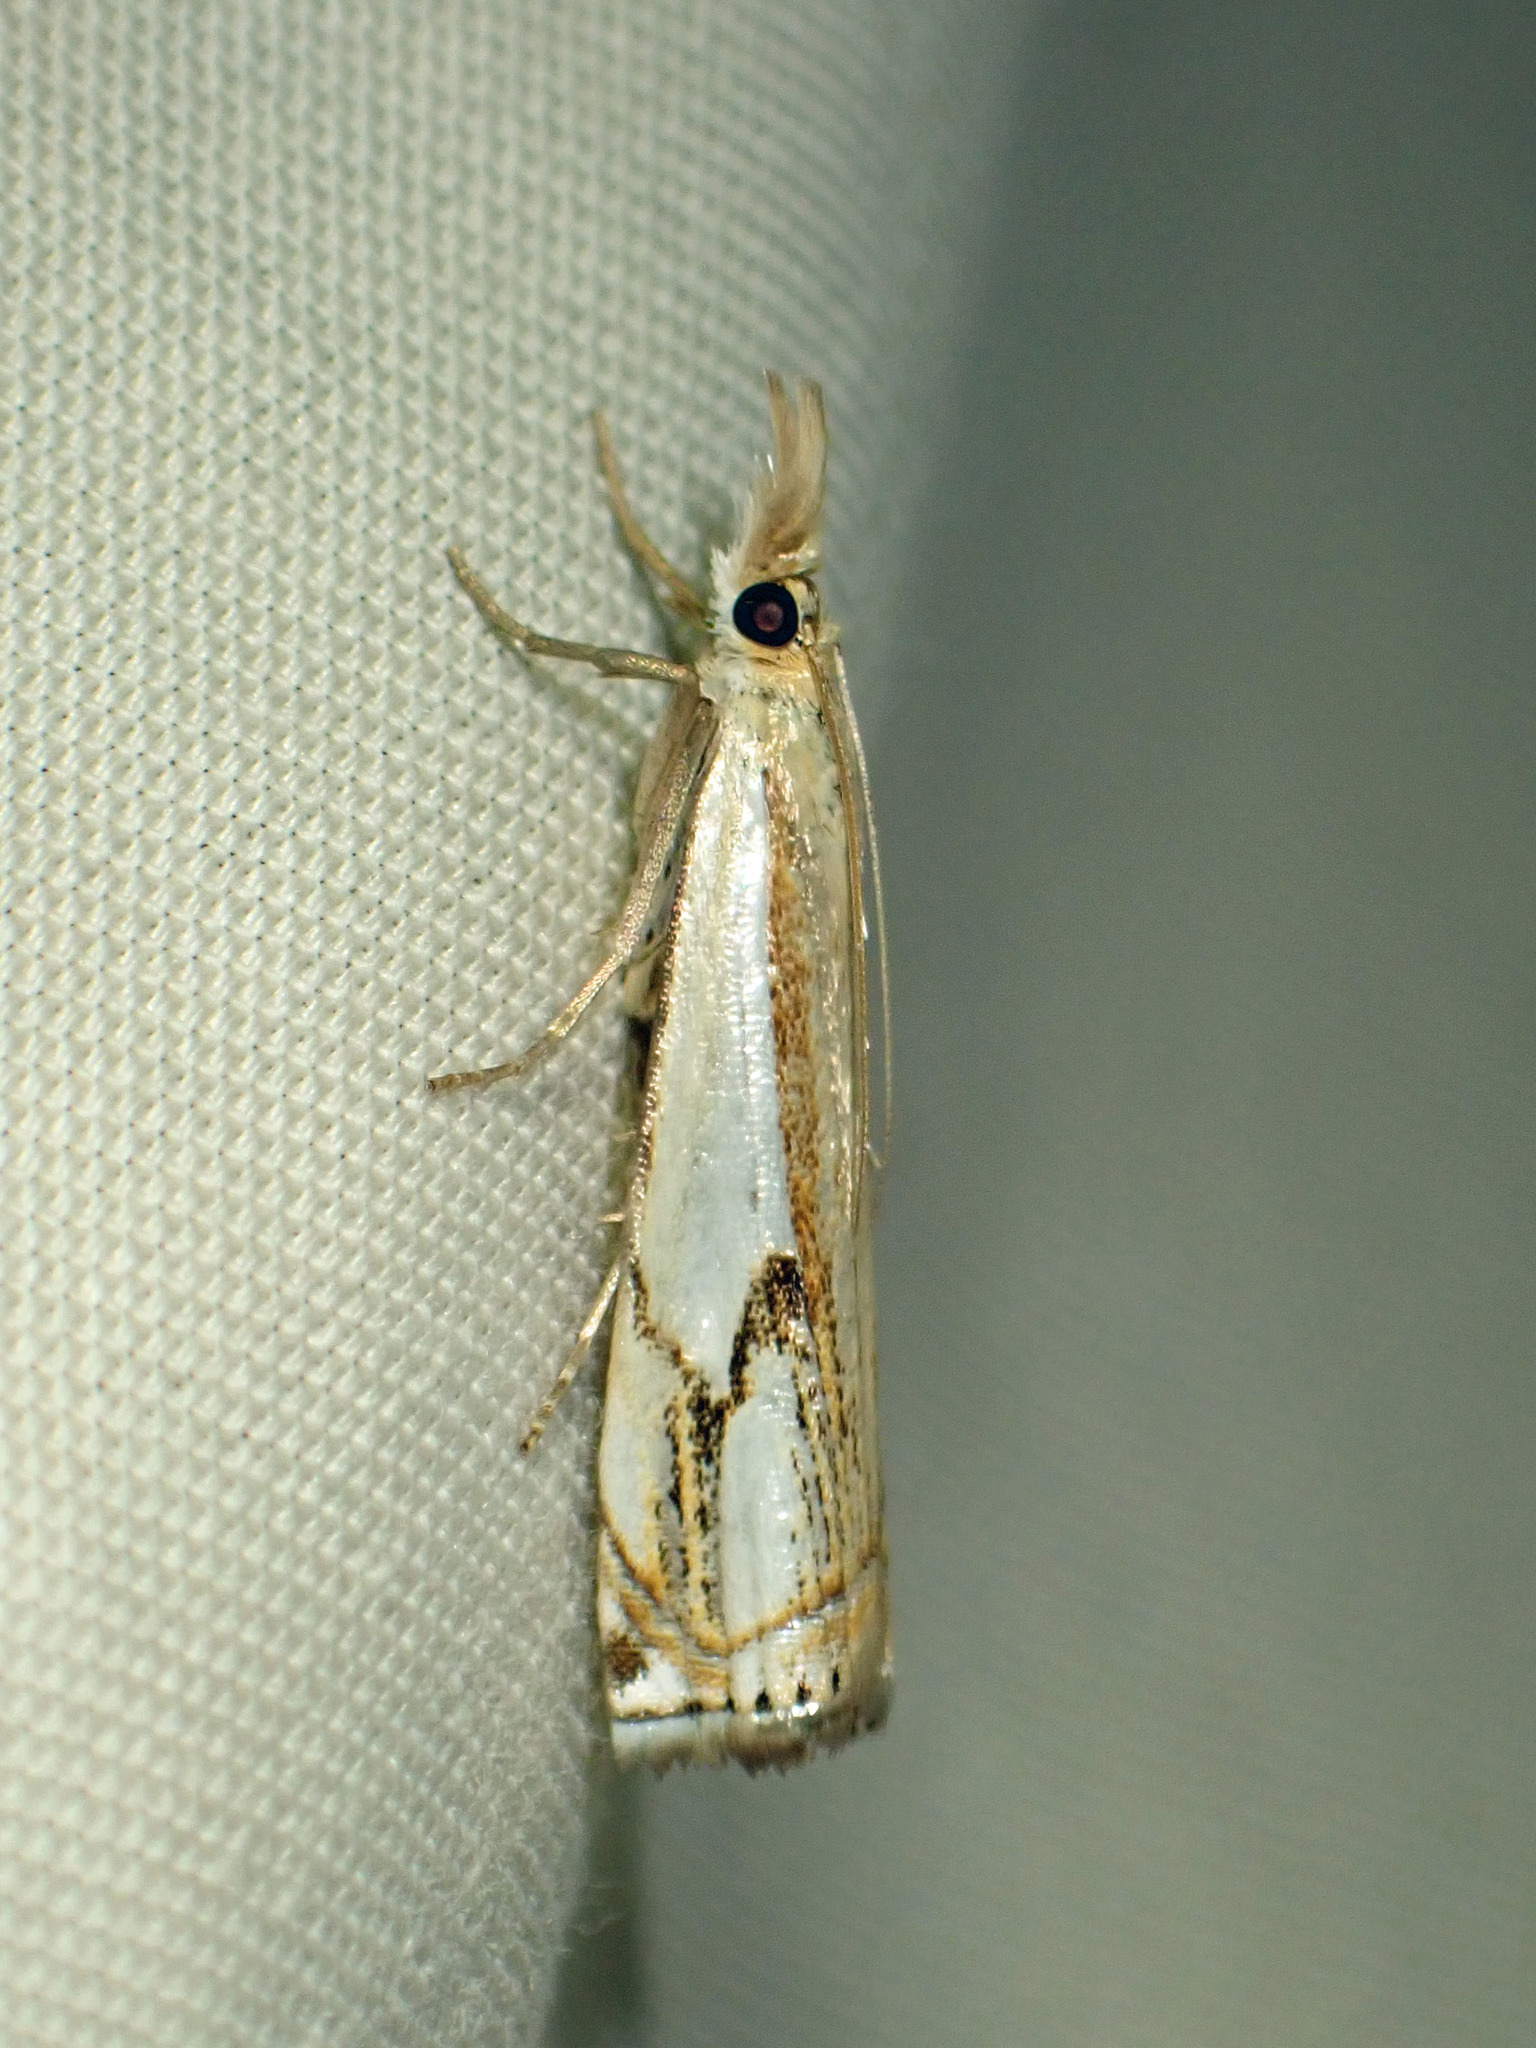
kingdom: Animalia
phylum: Arthropoda
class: Insecta
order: Lepidoptera
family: Crambidae
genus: Crambus
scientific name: Crambus agitatellus
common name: Double-banded grass-veneer
